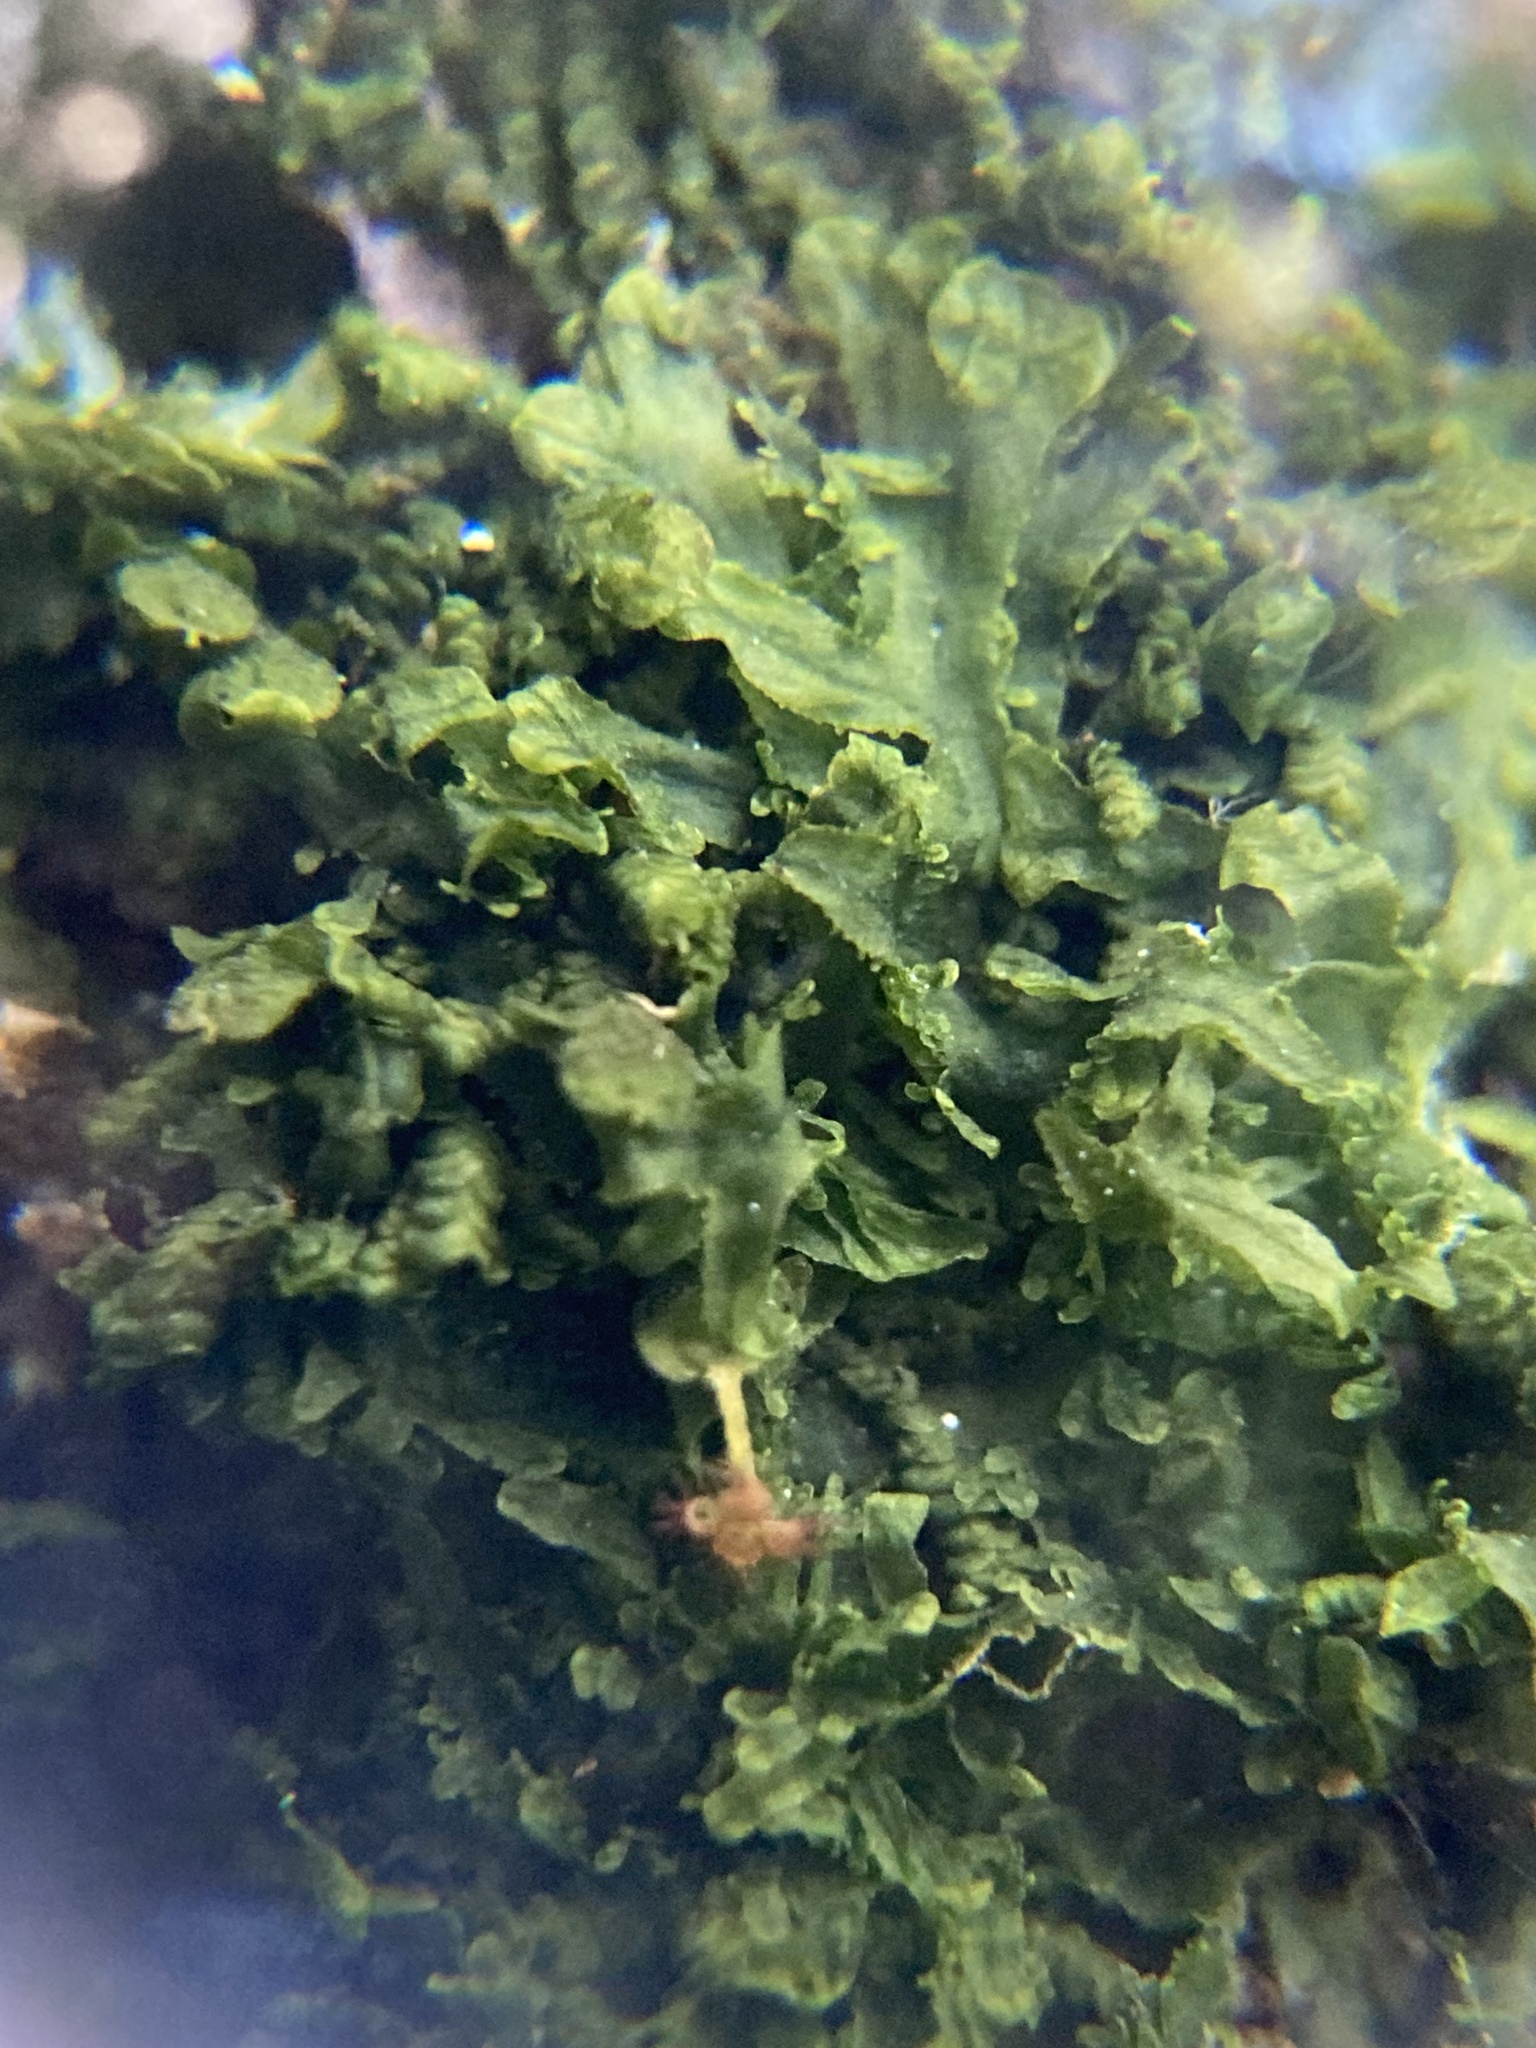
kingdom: Plantae
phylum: Marchantiophyta
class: Jungermanniopsida
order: Metzgeriales
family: Metzgeriaceae
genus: Metzgeria
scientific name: Metzgeria furcata
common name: Forked veilwort
